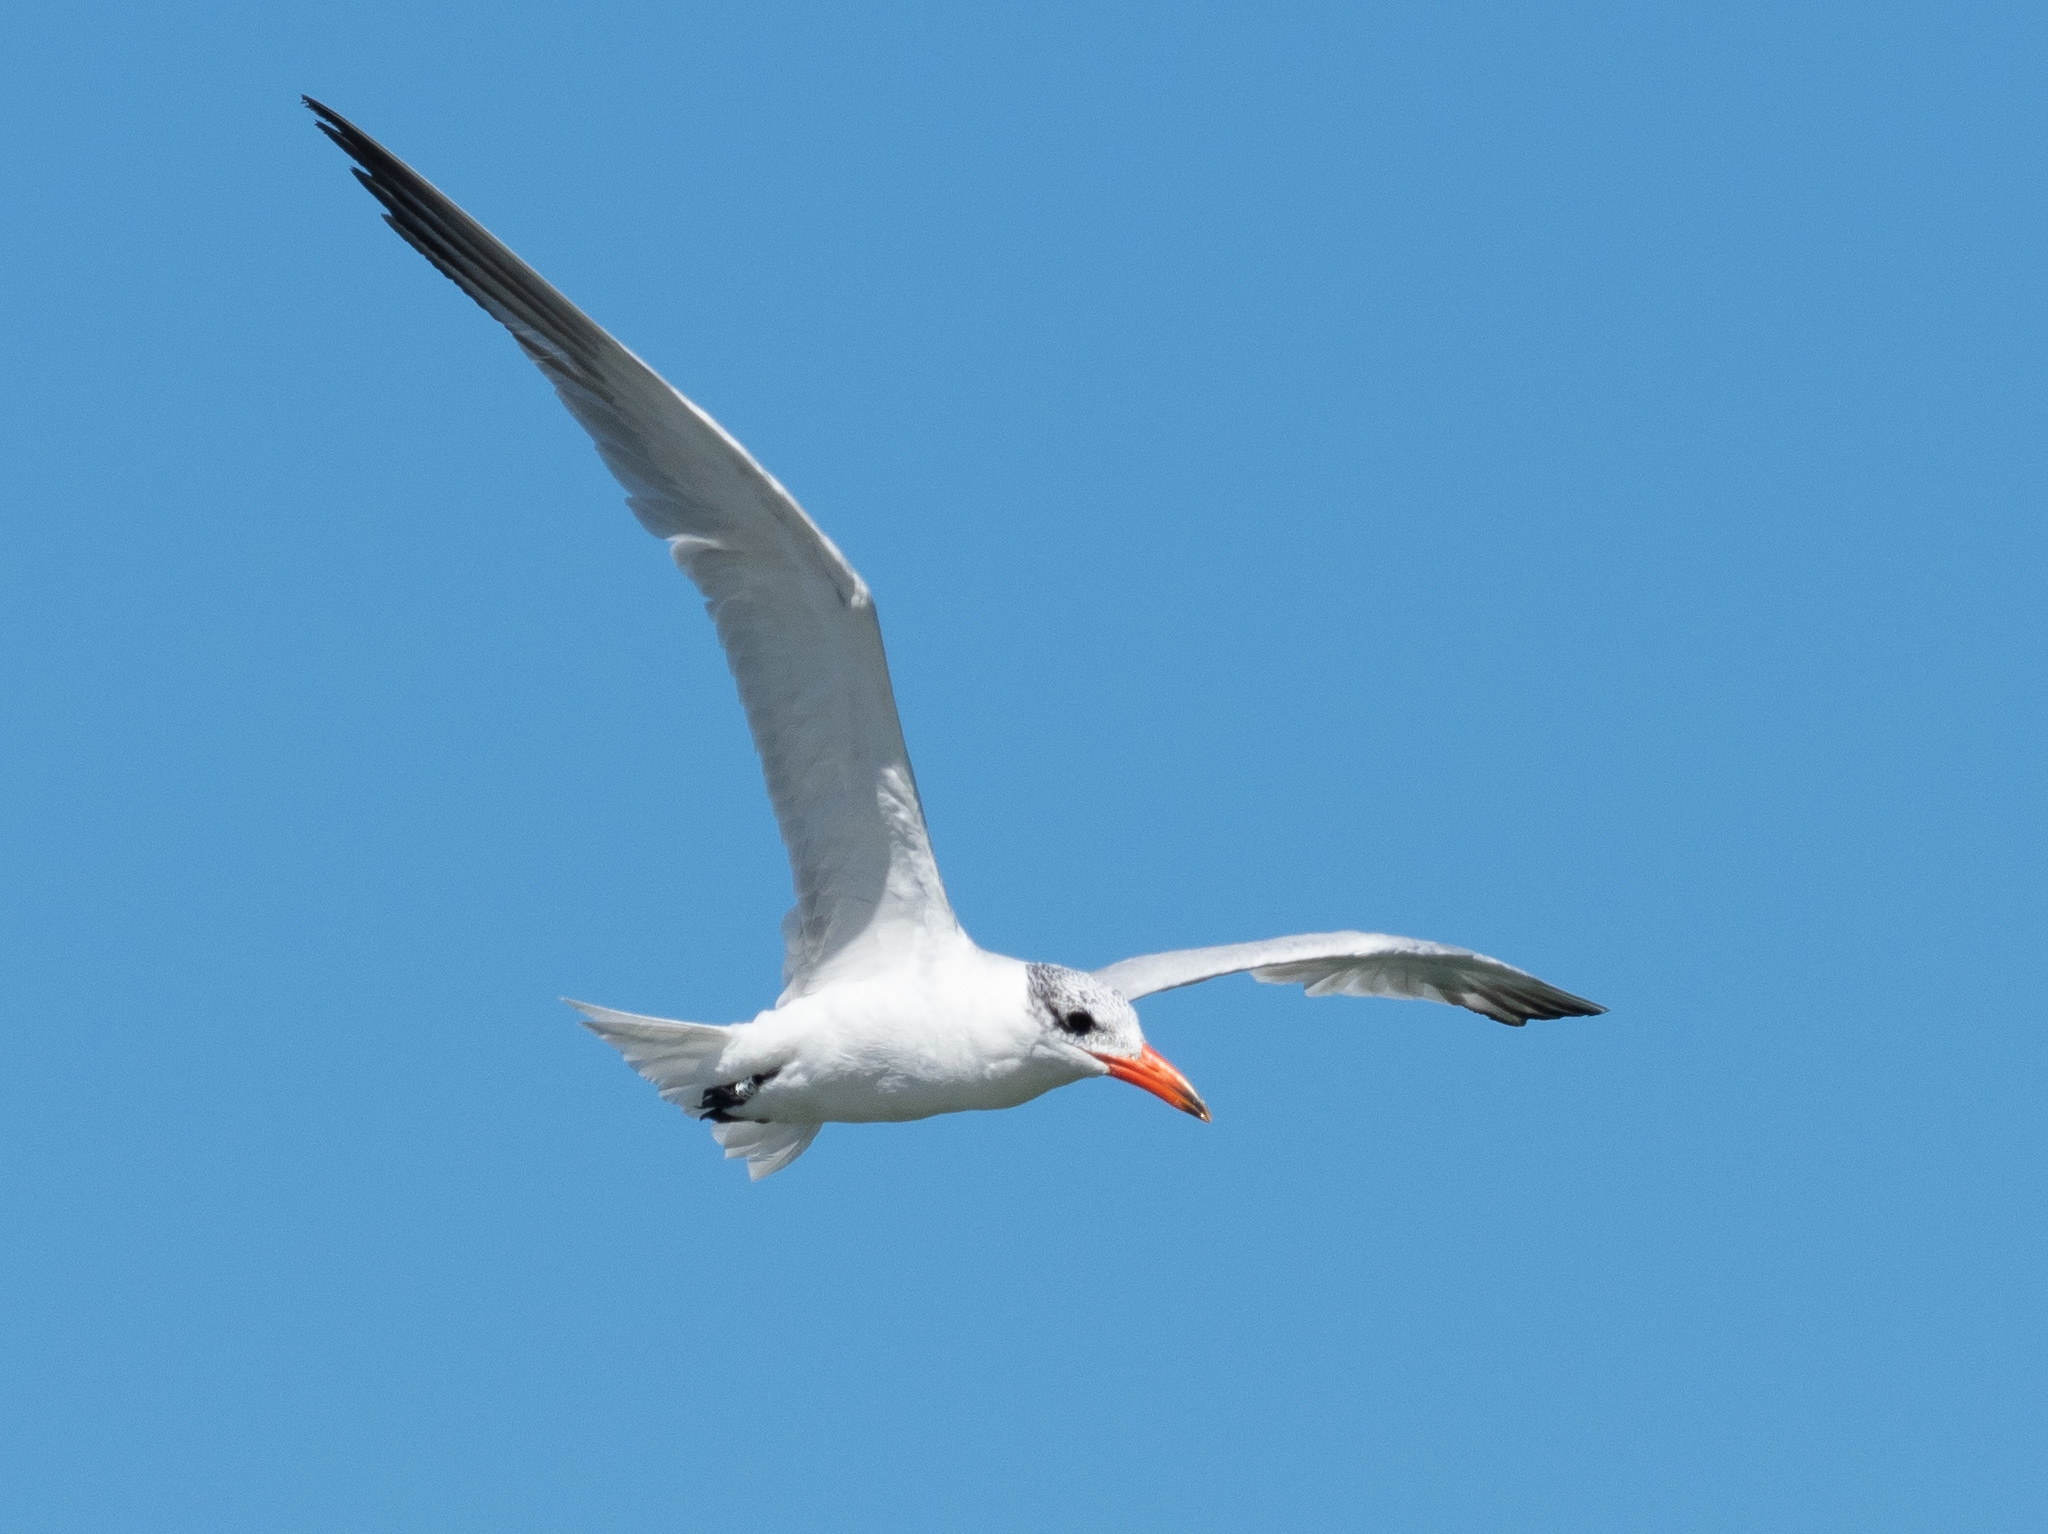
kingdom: Animalia
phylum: Chordata
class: Aves
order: Charadriiformes
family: Laridae
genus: Hydroprogne
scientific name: Hydroprogne caspia
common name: Caspian tern
